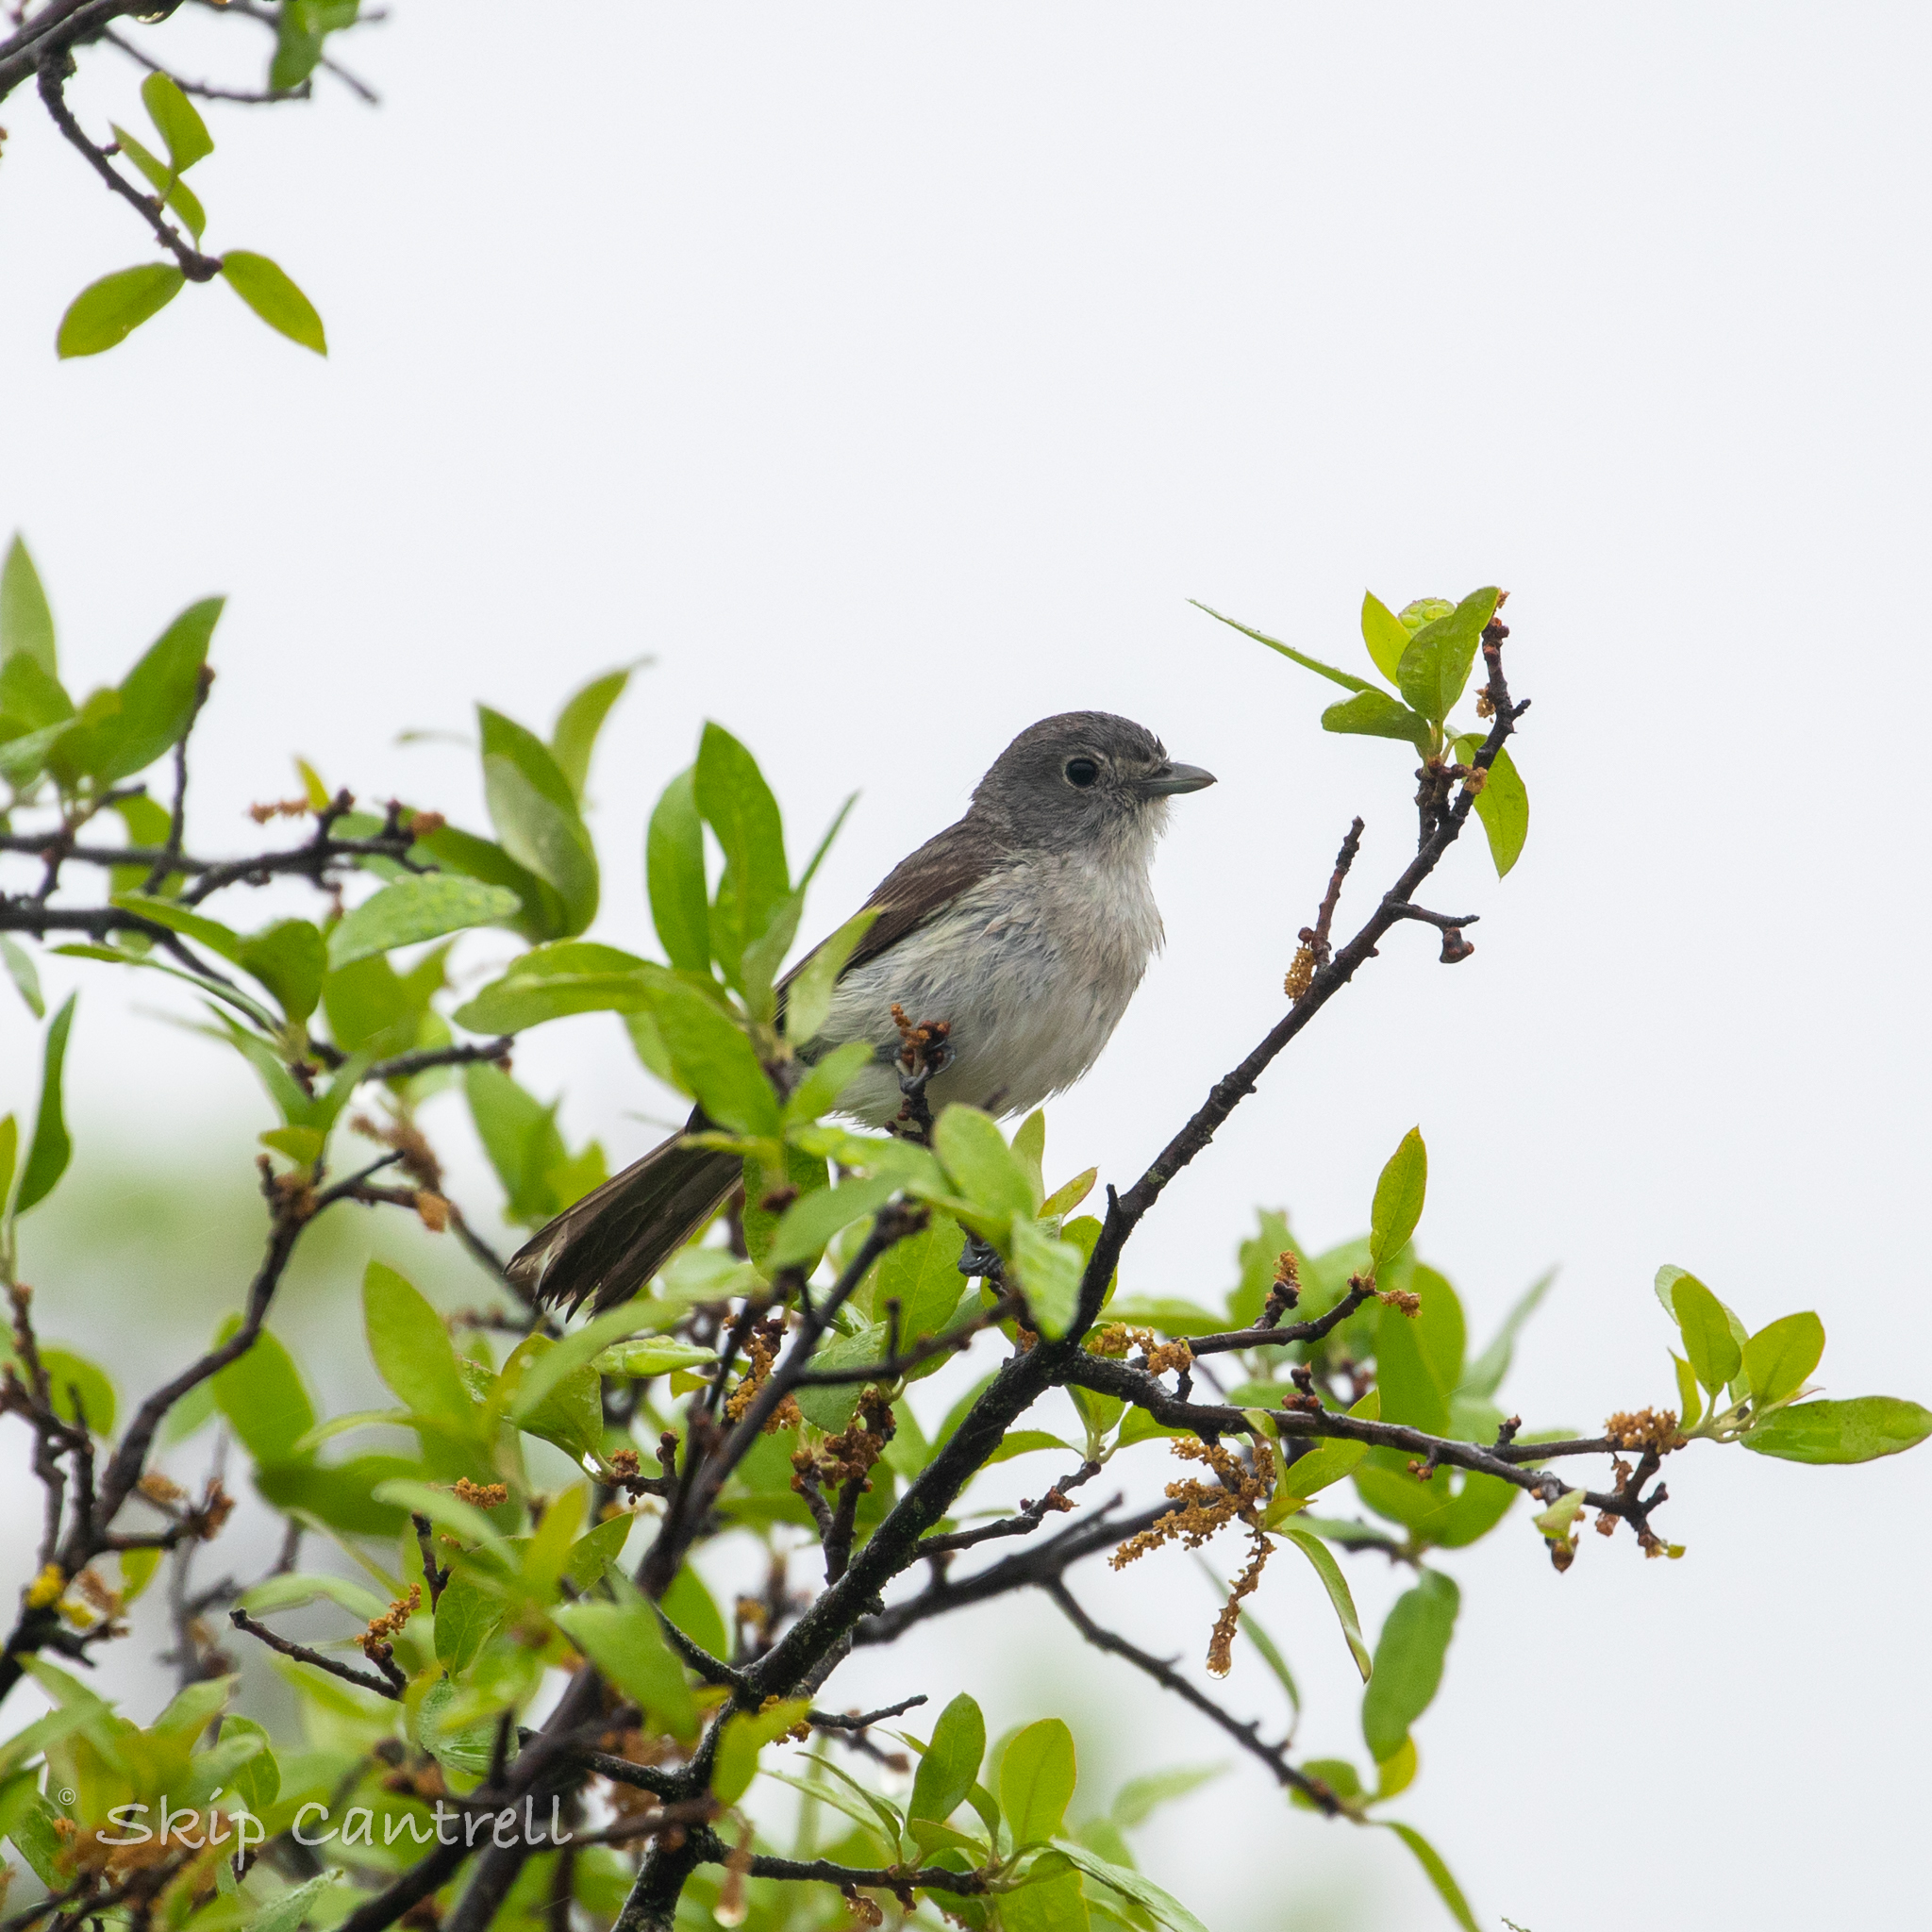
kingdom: Animalia
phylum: Chordata
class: Aves
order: Passeriformes
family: Vireonidae
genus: Vireo
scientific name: Vireo vicinior
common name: Gray vireo
